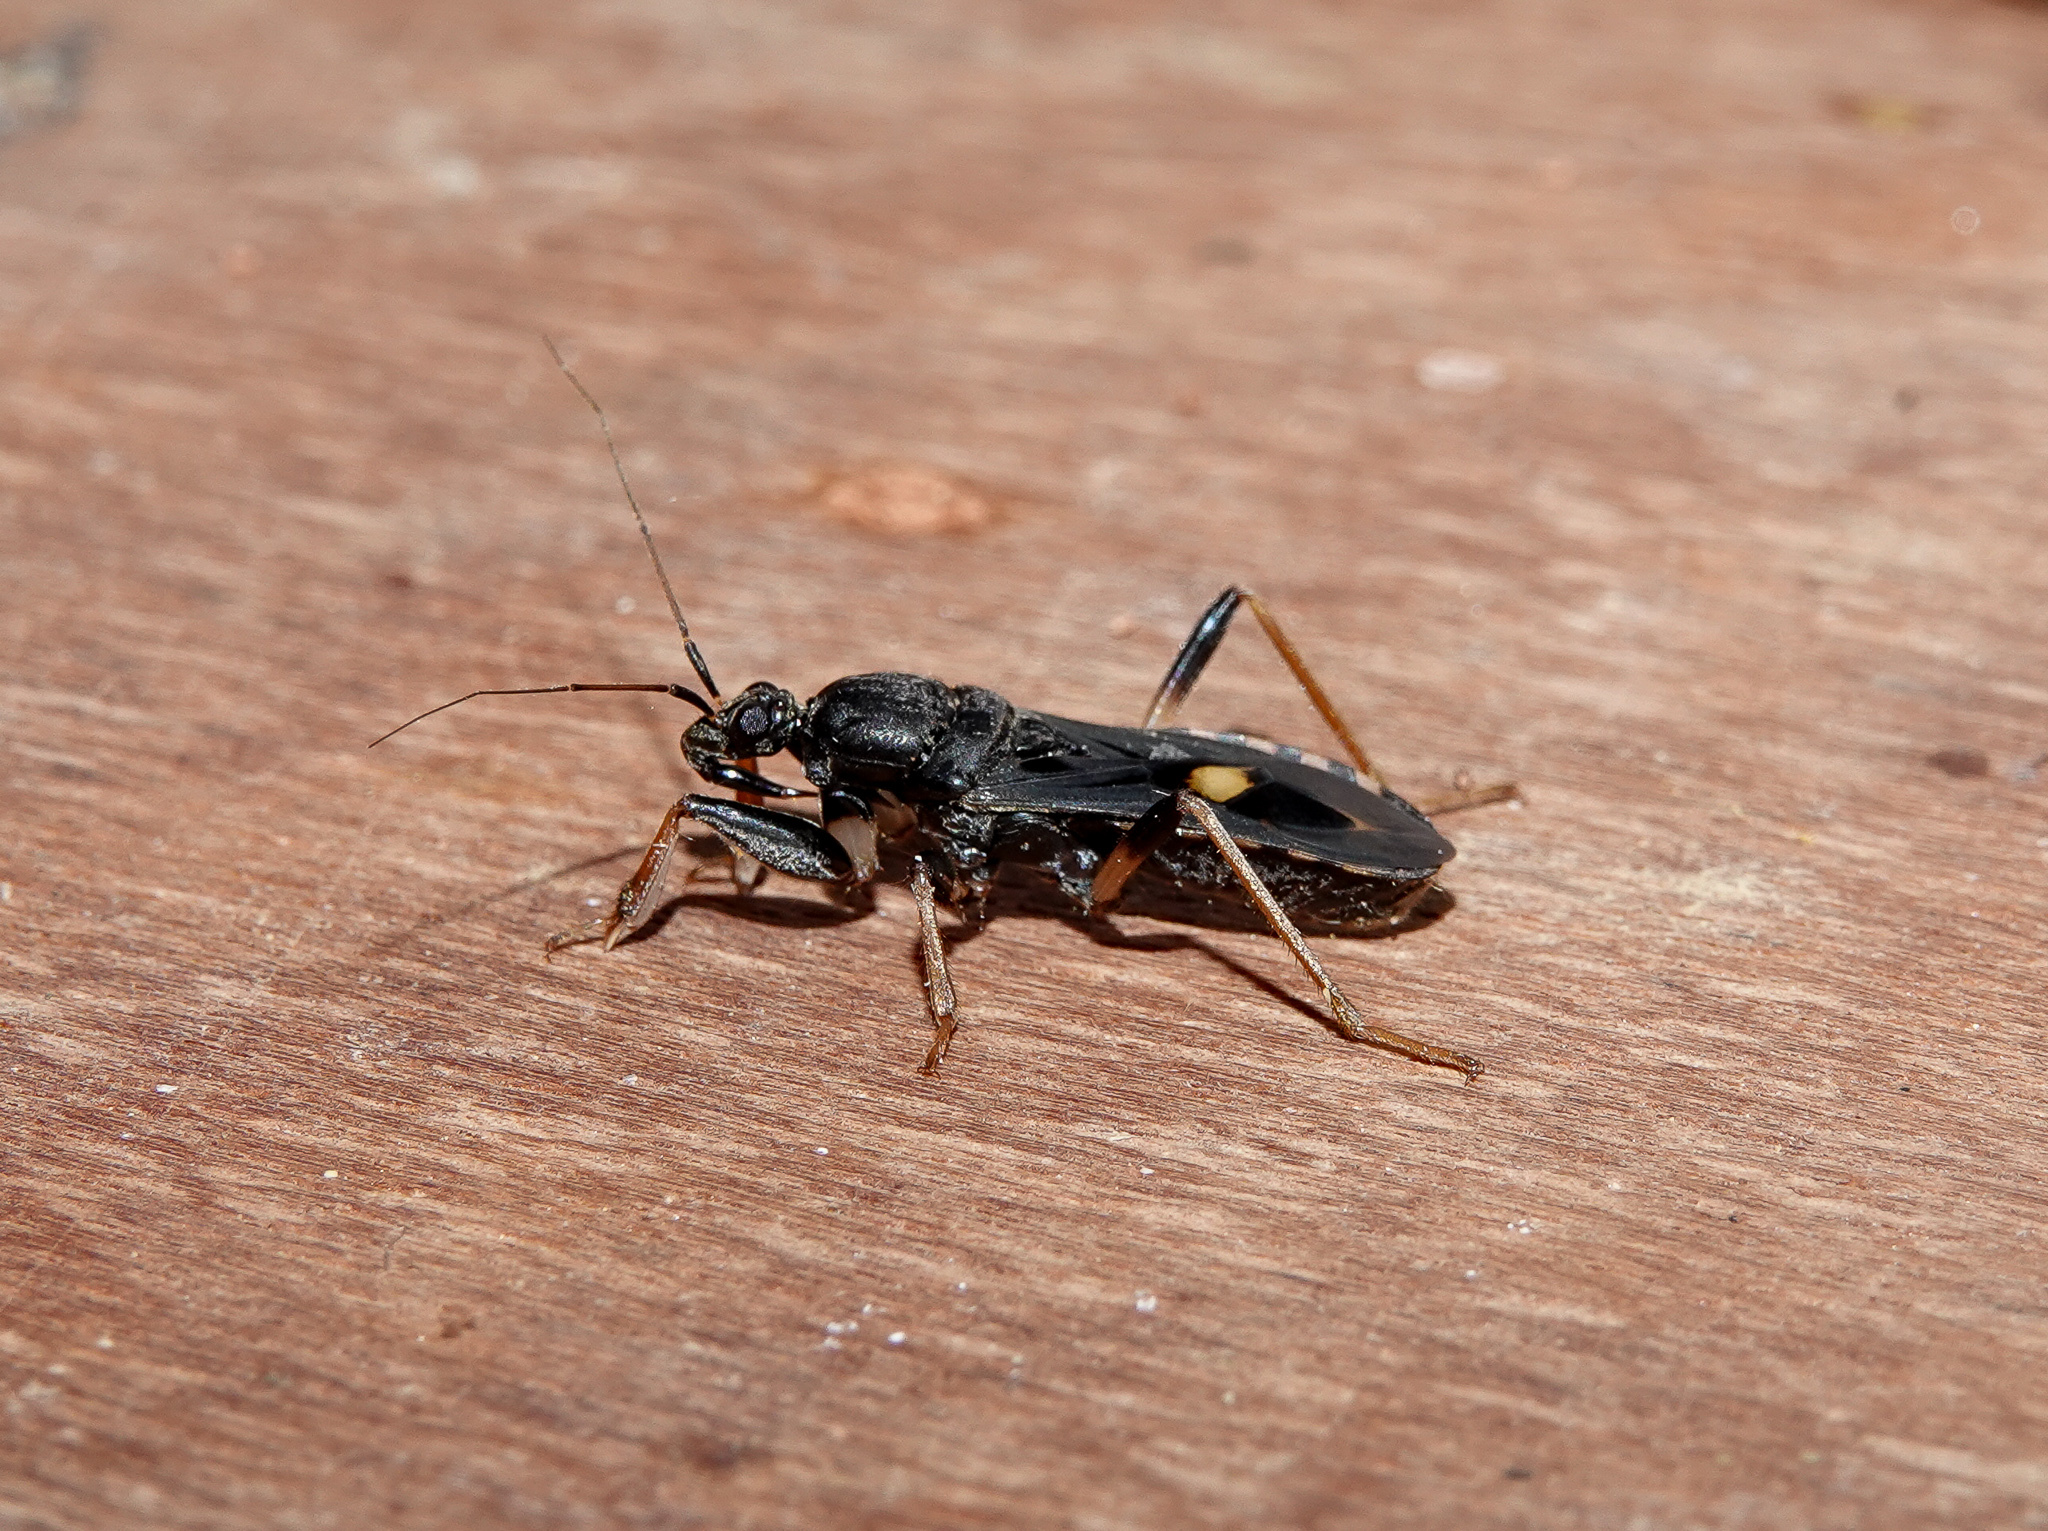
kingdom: Animalia
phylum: Arthropoda
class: Insecta
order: Hemiptera
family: Reduviidae
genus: Ectomocoris
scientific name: Ectomocoris atrox
